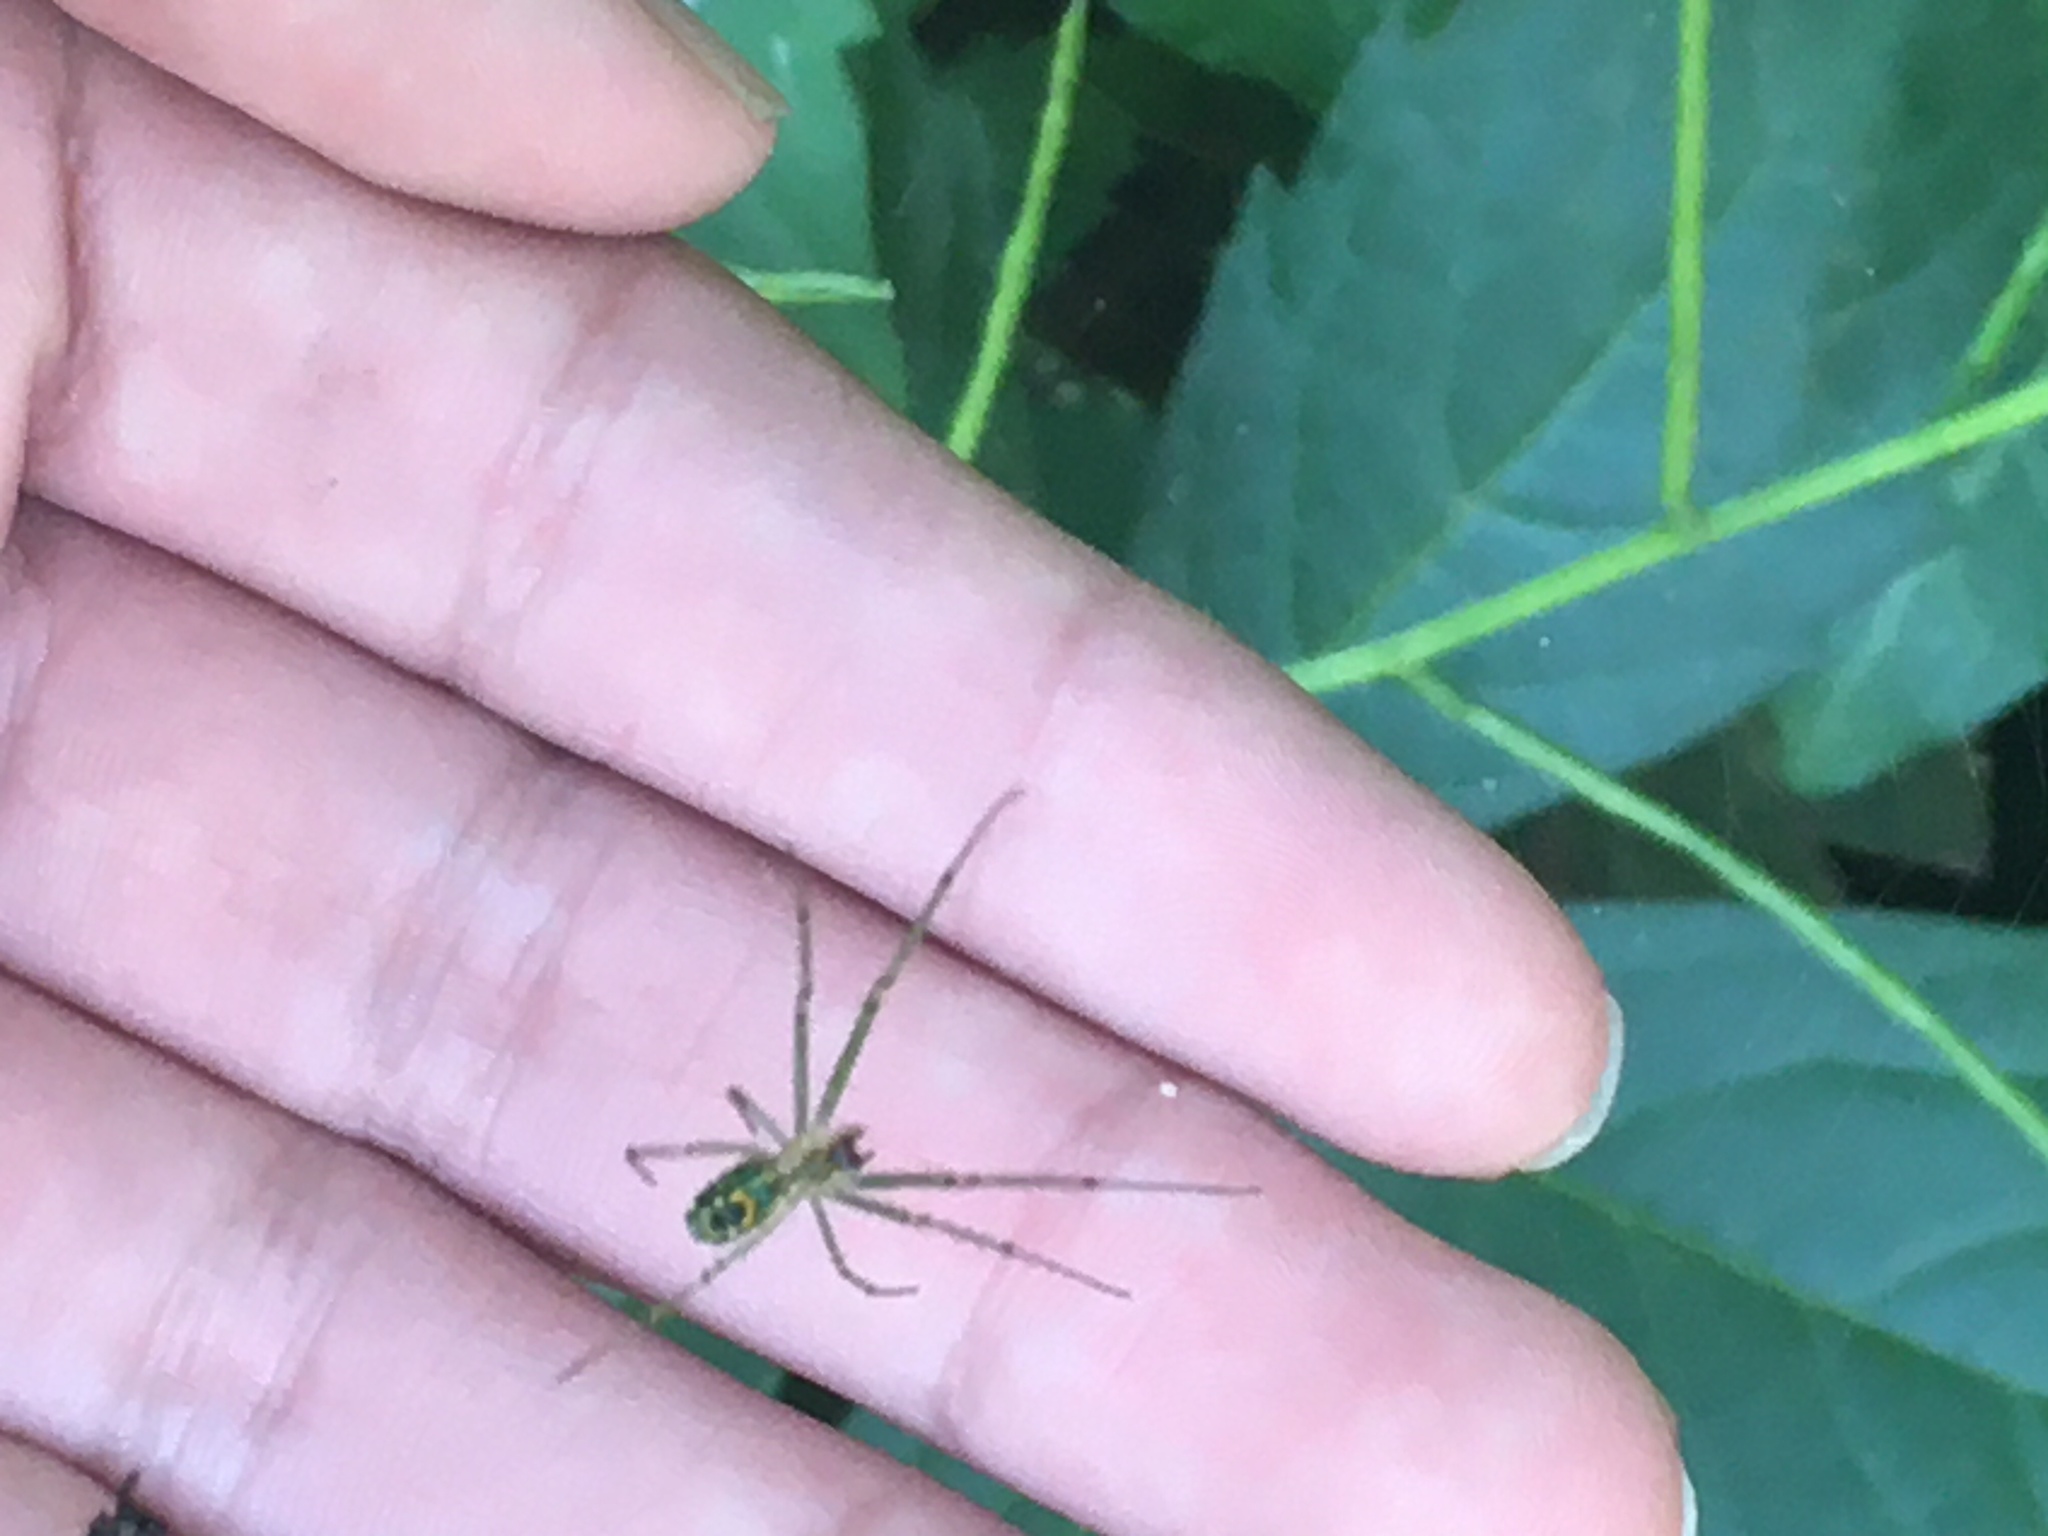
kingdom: Animalia
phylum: Arthropoda
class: Arachnida
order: Araneae
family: Tetragnathidae
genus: Leucauge
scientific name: Leucauge venusta
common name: Longjawed orb weavers
